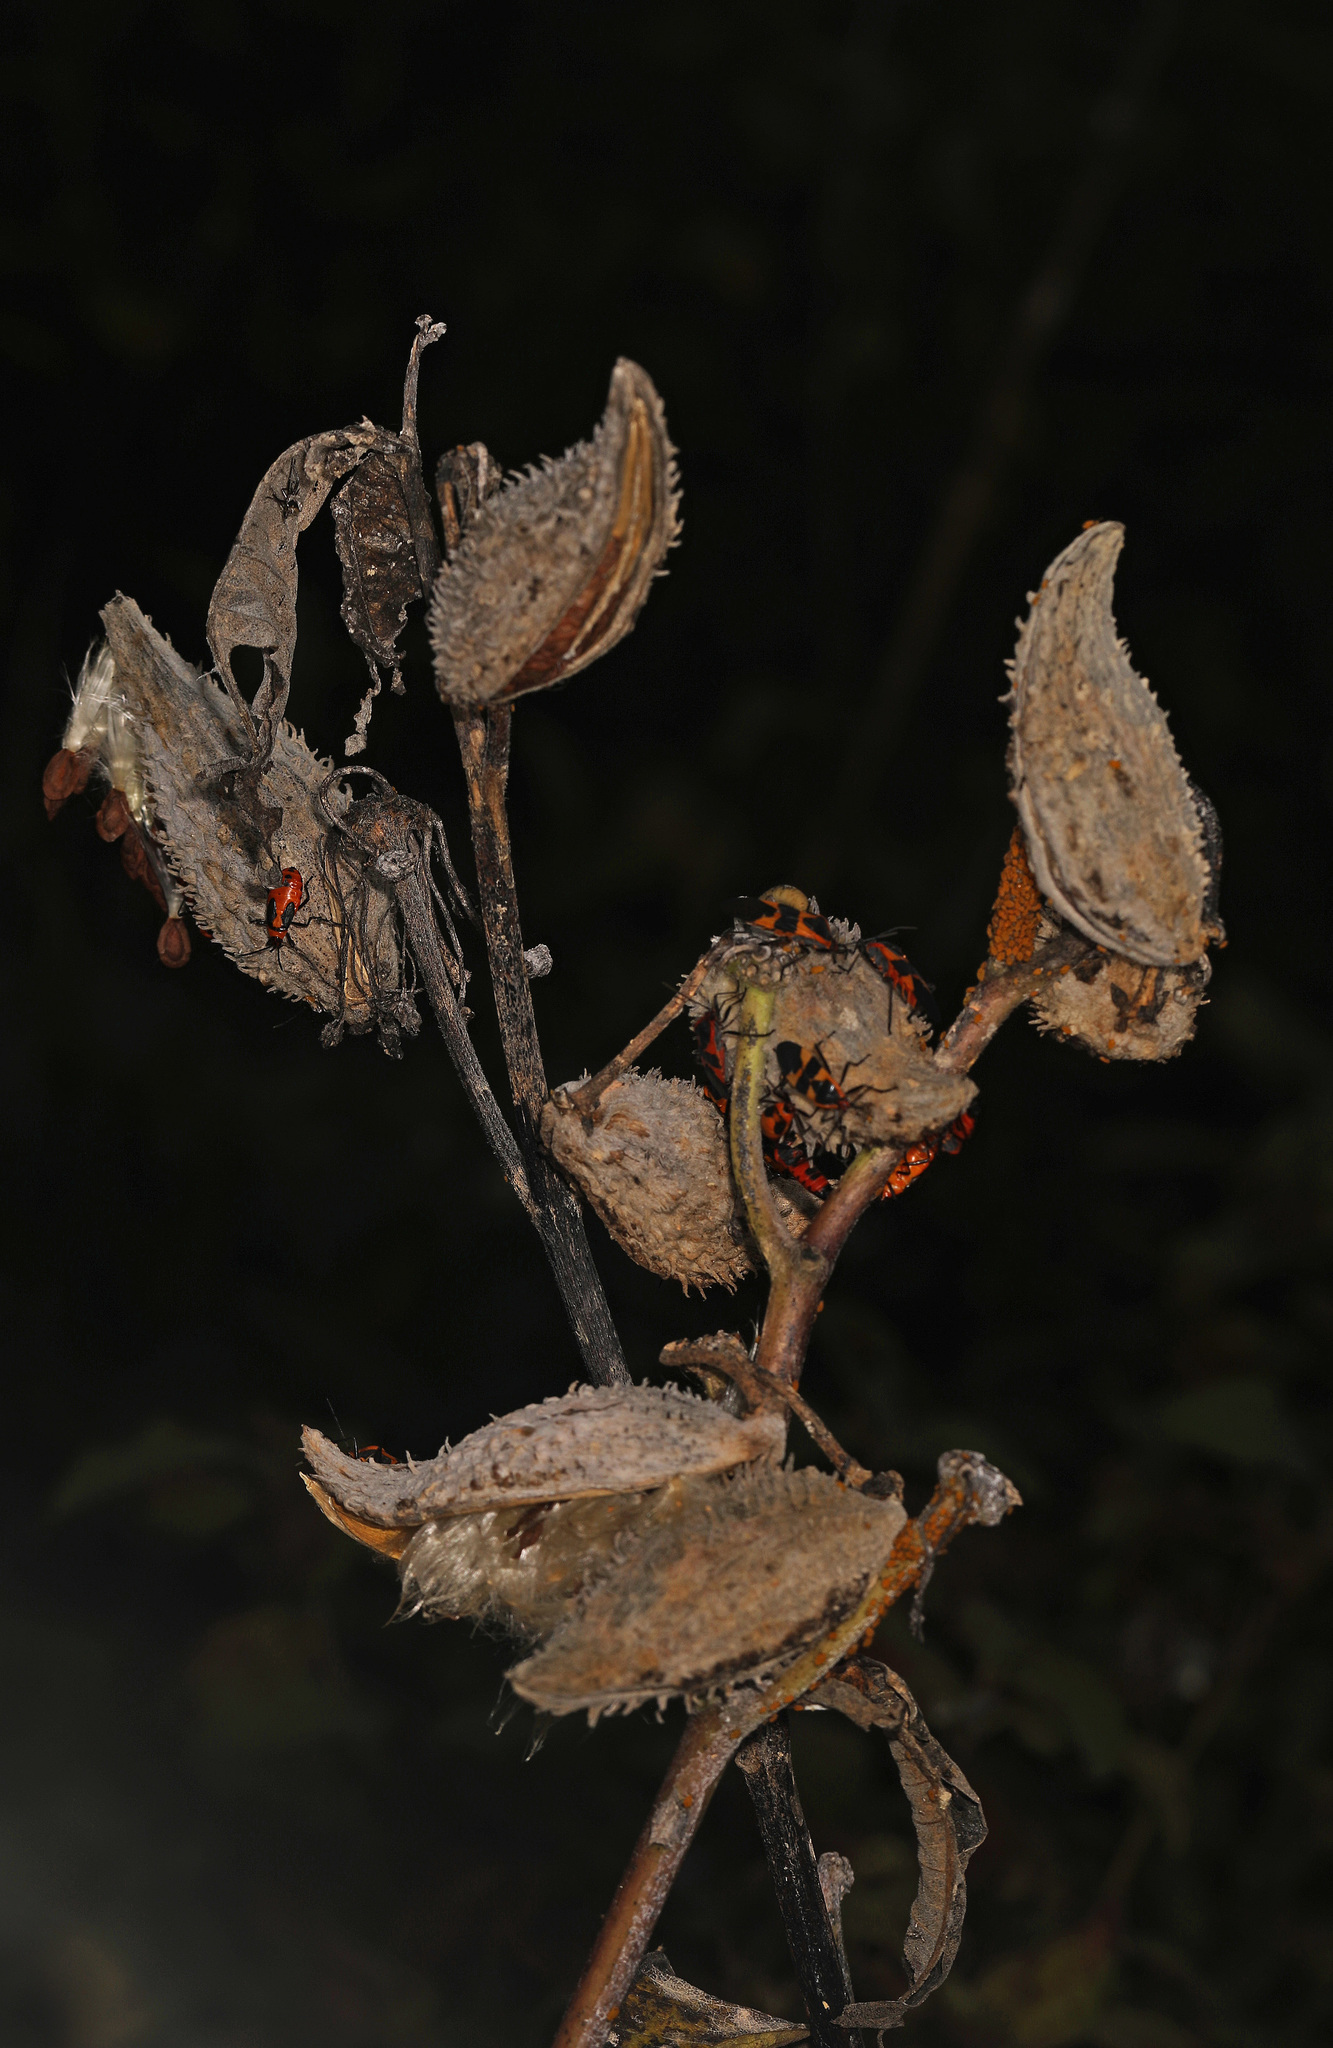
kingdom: Plantae
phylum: Tracheophyta
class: Magnoliopsida
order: Gentianales
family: Apocynaceae
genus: Asclepias
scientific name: Asclepias syriaca
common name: Common milkweed
